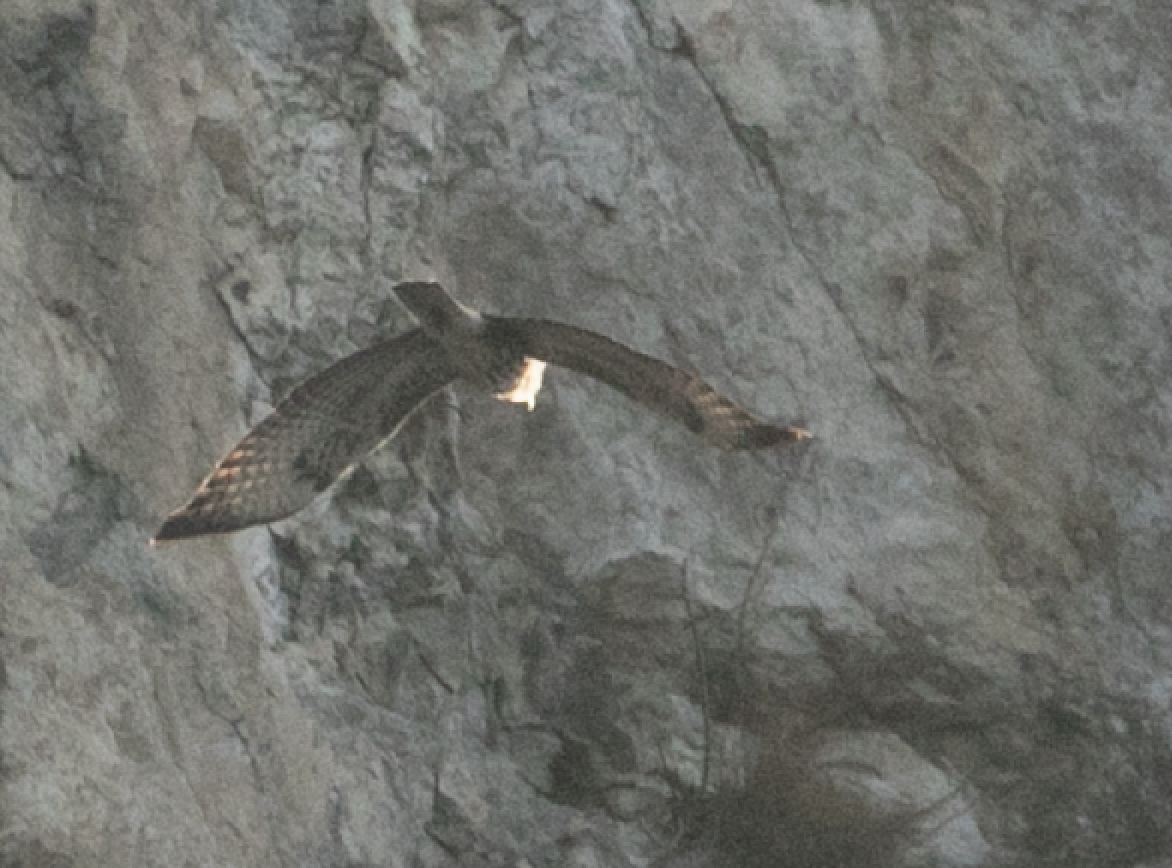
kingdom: Animalia
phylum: Chordata
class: Aves
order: Accipitriformes
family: Accipitridae
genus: Buteo
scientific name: Buteo buteo
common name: Common buzzard
